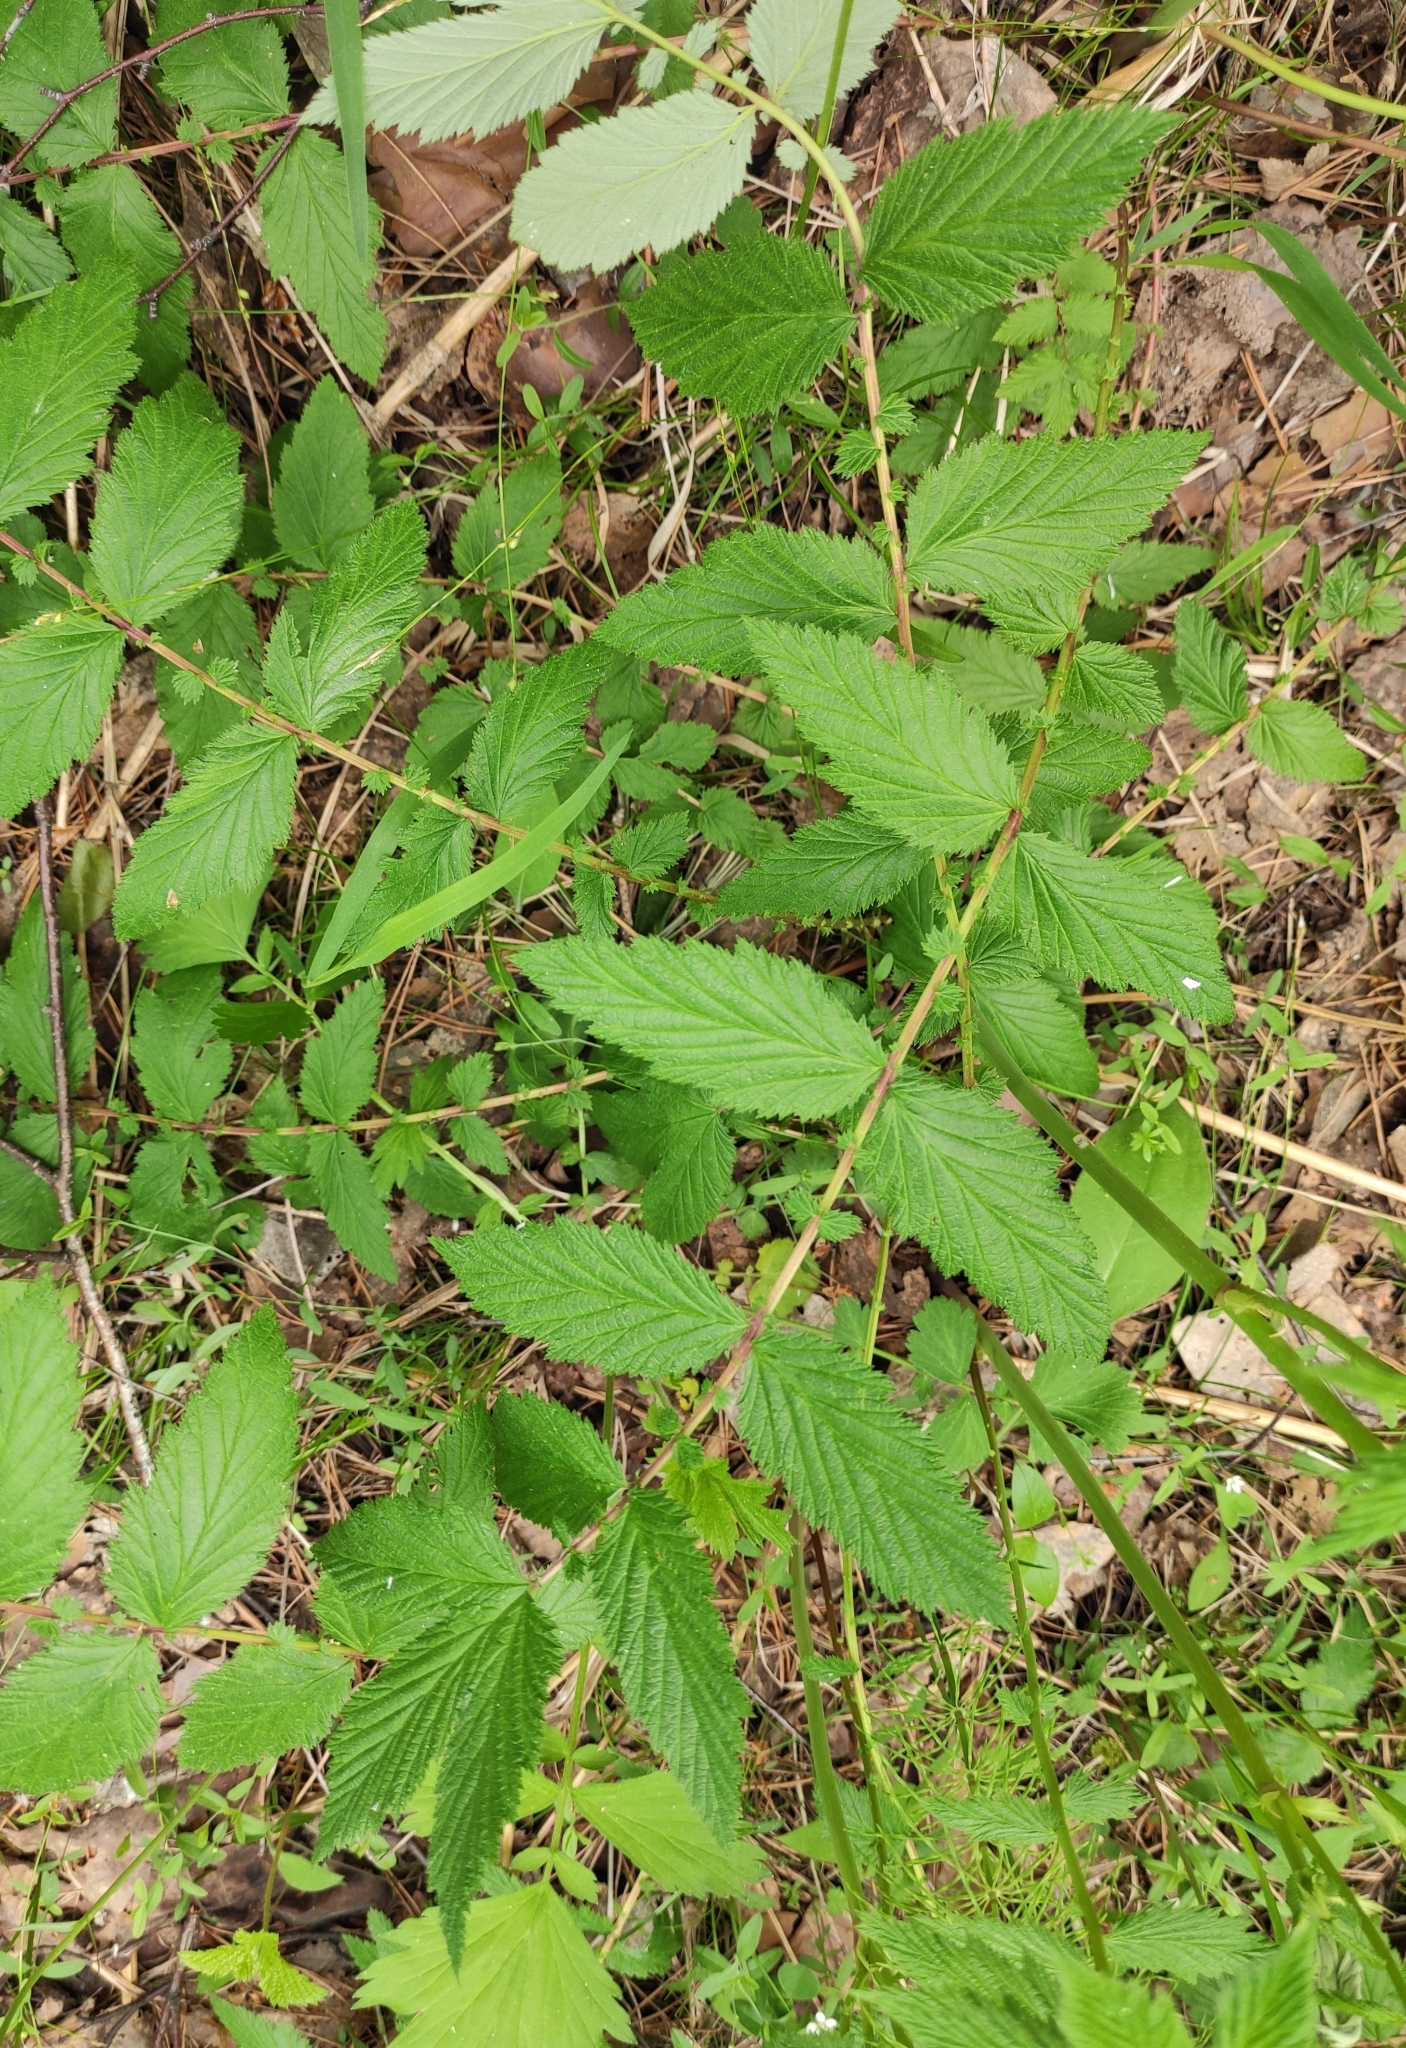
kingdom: Plantae
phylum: Tracheophyta
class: Magnoliopsida
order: Rosales
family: Rosaceae
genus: Filipendula
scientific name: Filipendula ulmaria
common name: Meadowsweet
